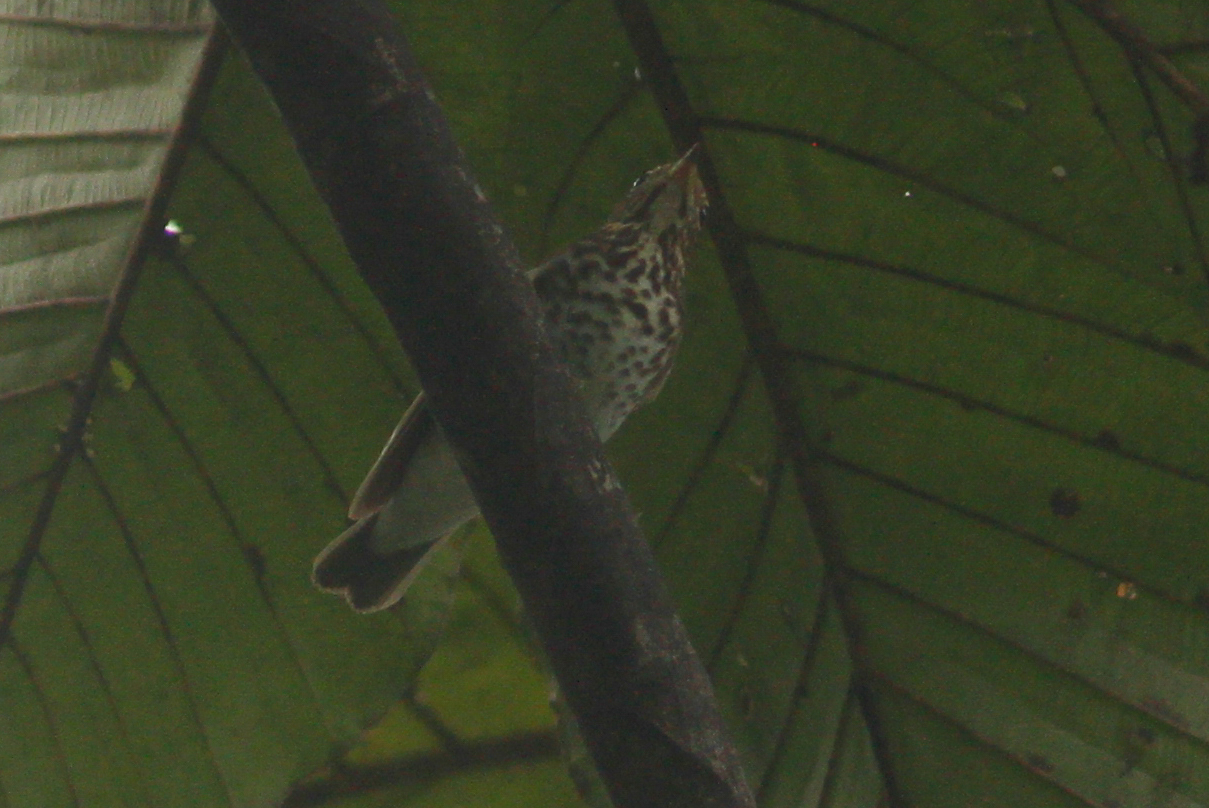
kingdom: Animalia
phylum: Chordata
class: Aves
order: Passeriformes
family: Turdidae
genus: Catharus
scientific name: Catharus ustulatus
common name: Swainson's thrush
